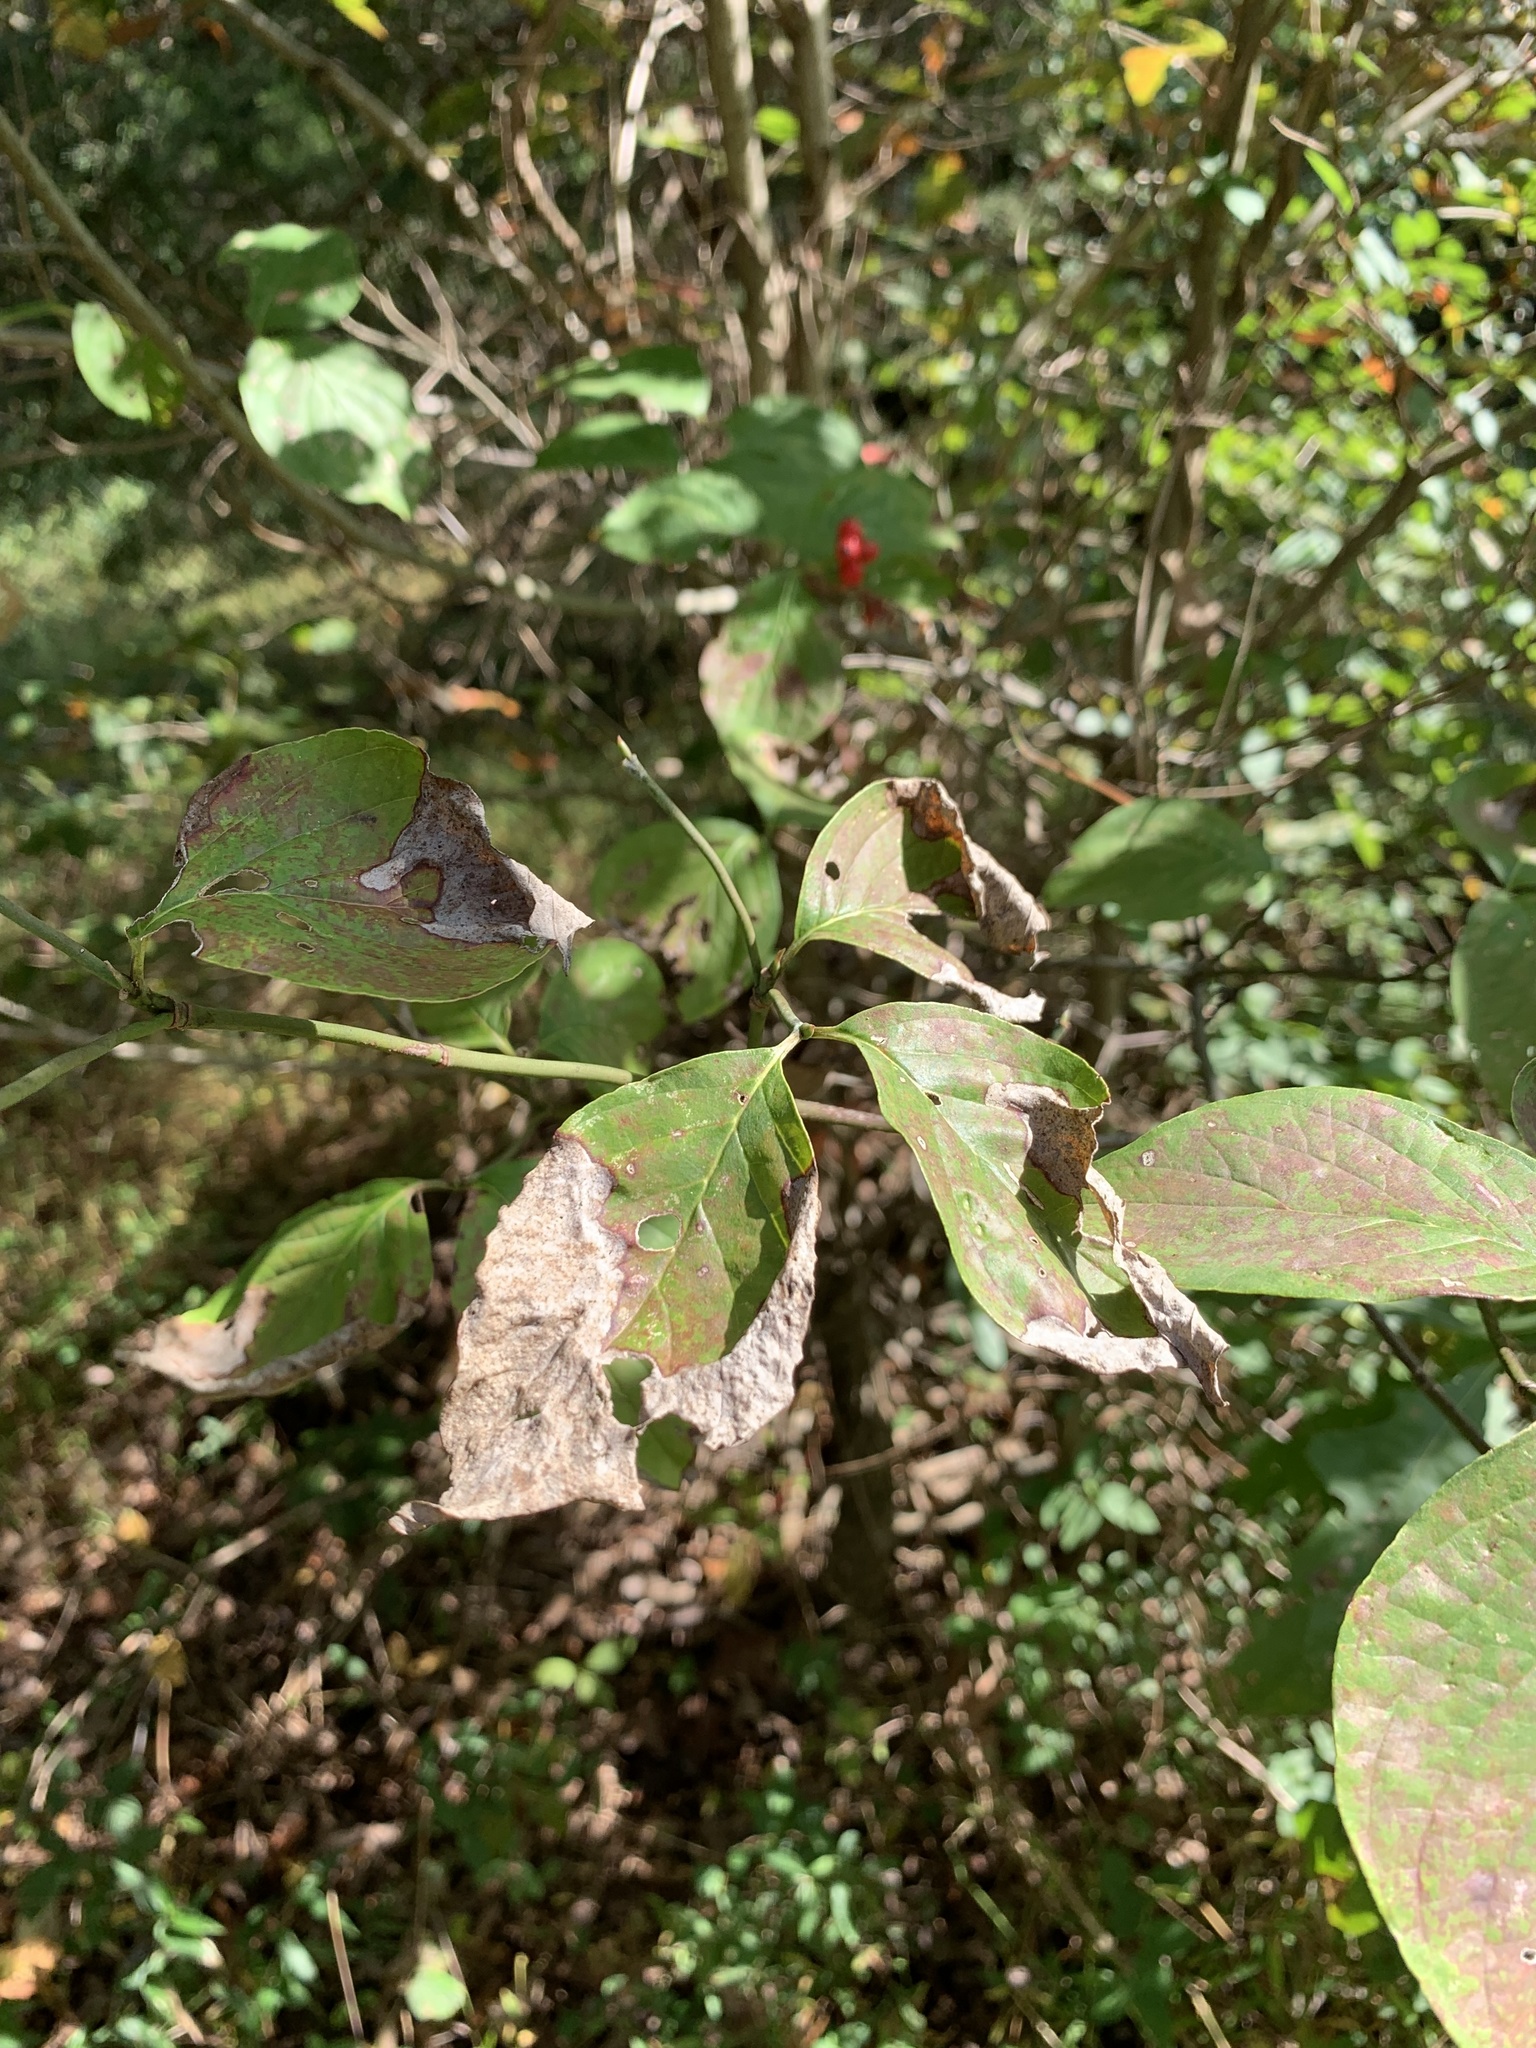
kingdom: Fungi
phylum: Ascomycota
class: Sordariomycetes
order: Diaporthales
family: Gnomoniaceae
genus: Discula
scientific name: Discula destructiva
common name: Dogwood anthracnose
